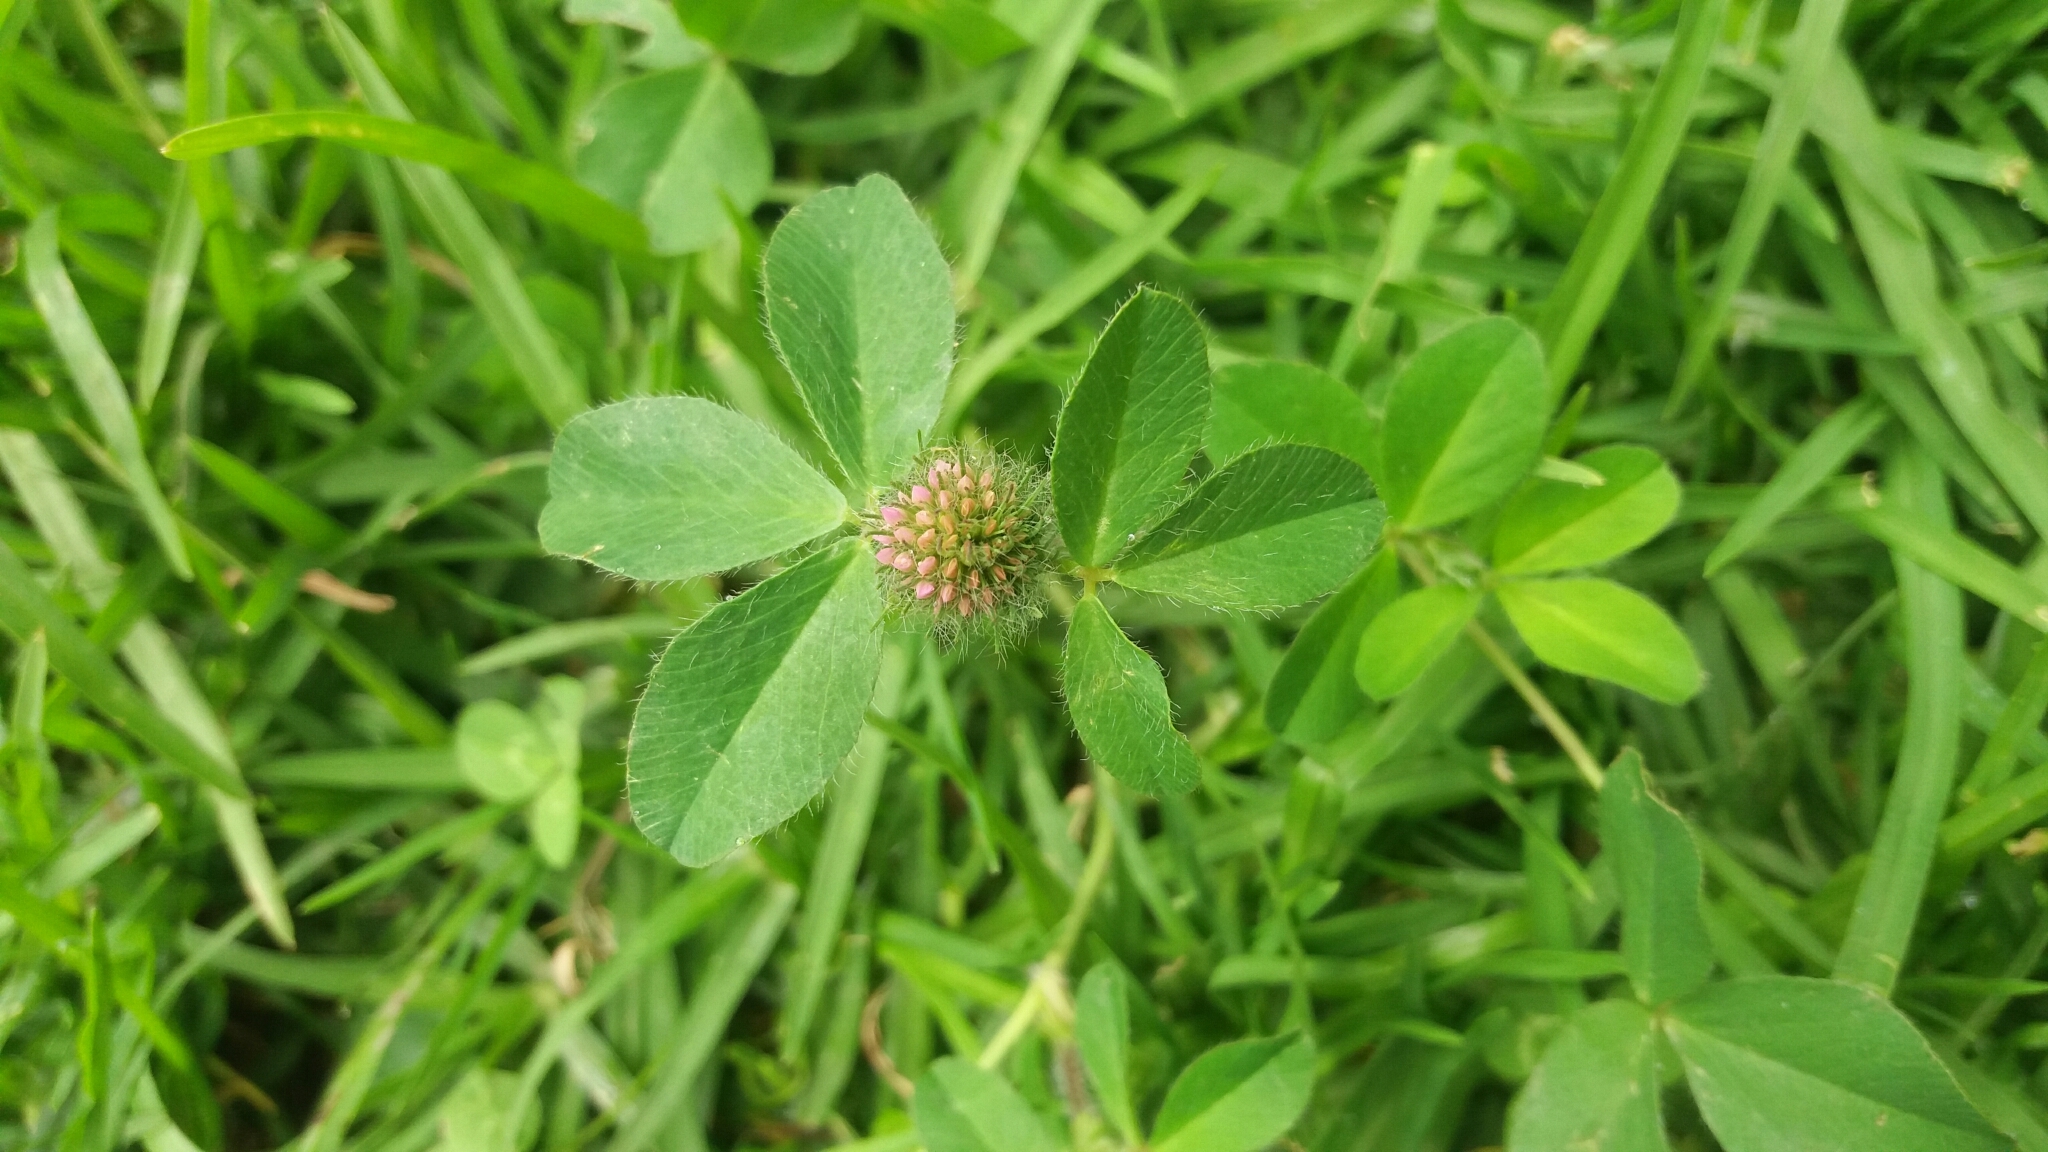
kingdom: Plantae
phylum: Tracheophyta
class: Magnoliopsida
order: Fabales
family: Fabaceae
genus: Trifolium
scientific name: Trifolium pratense
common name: Red clover
